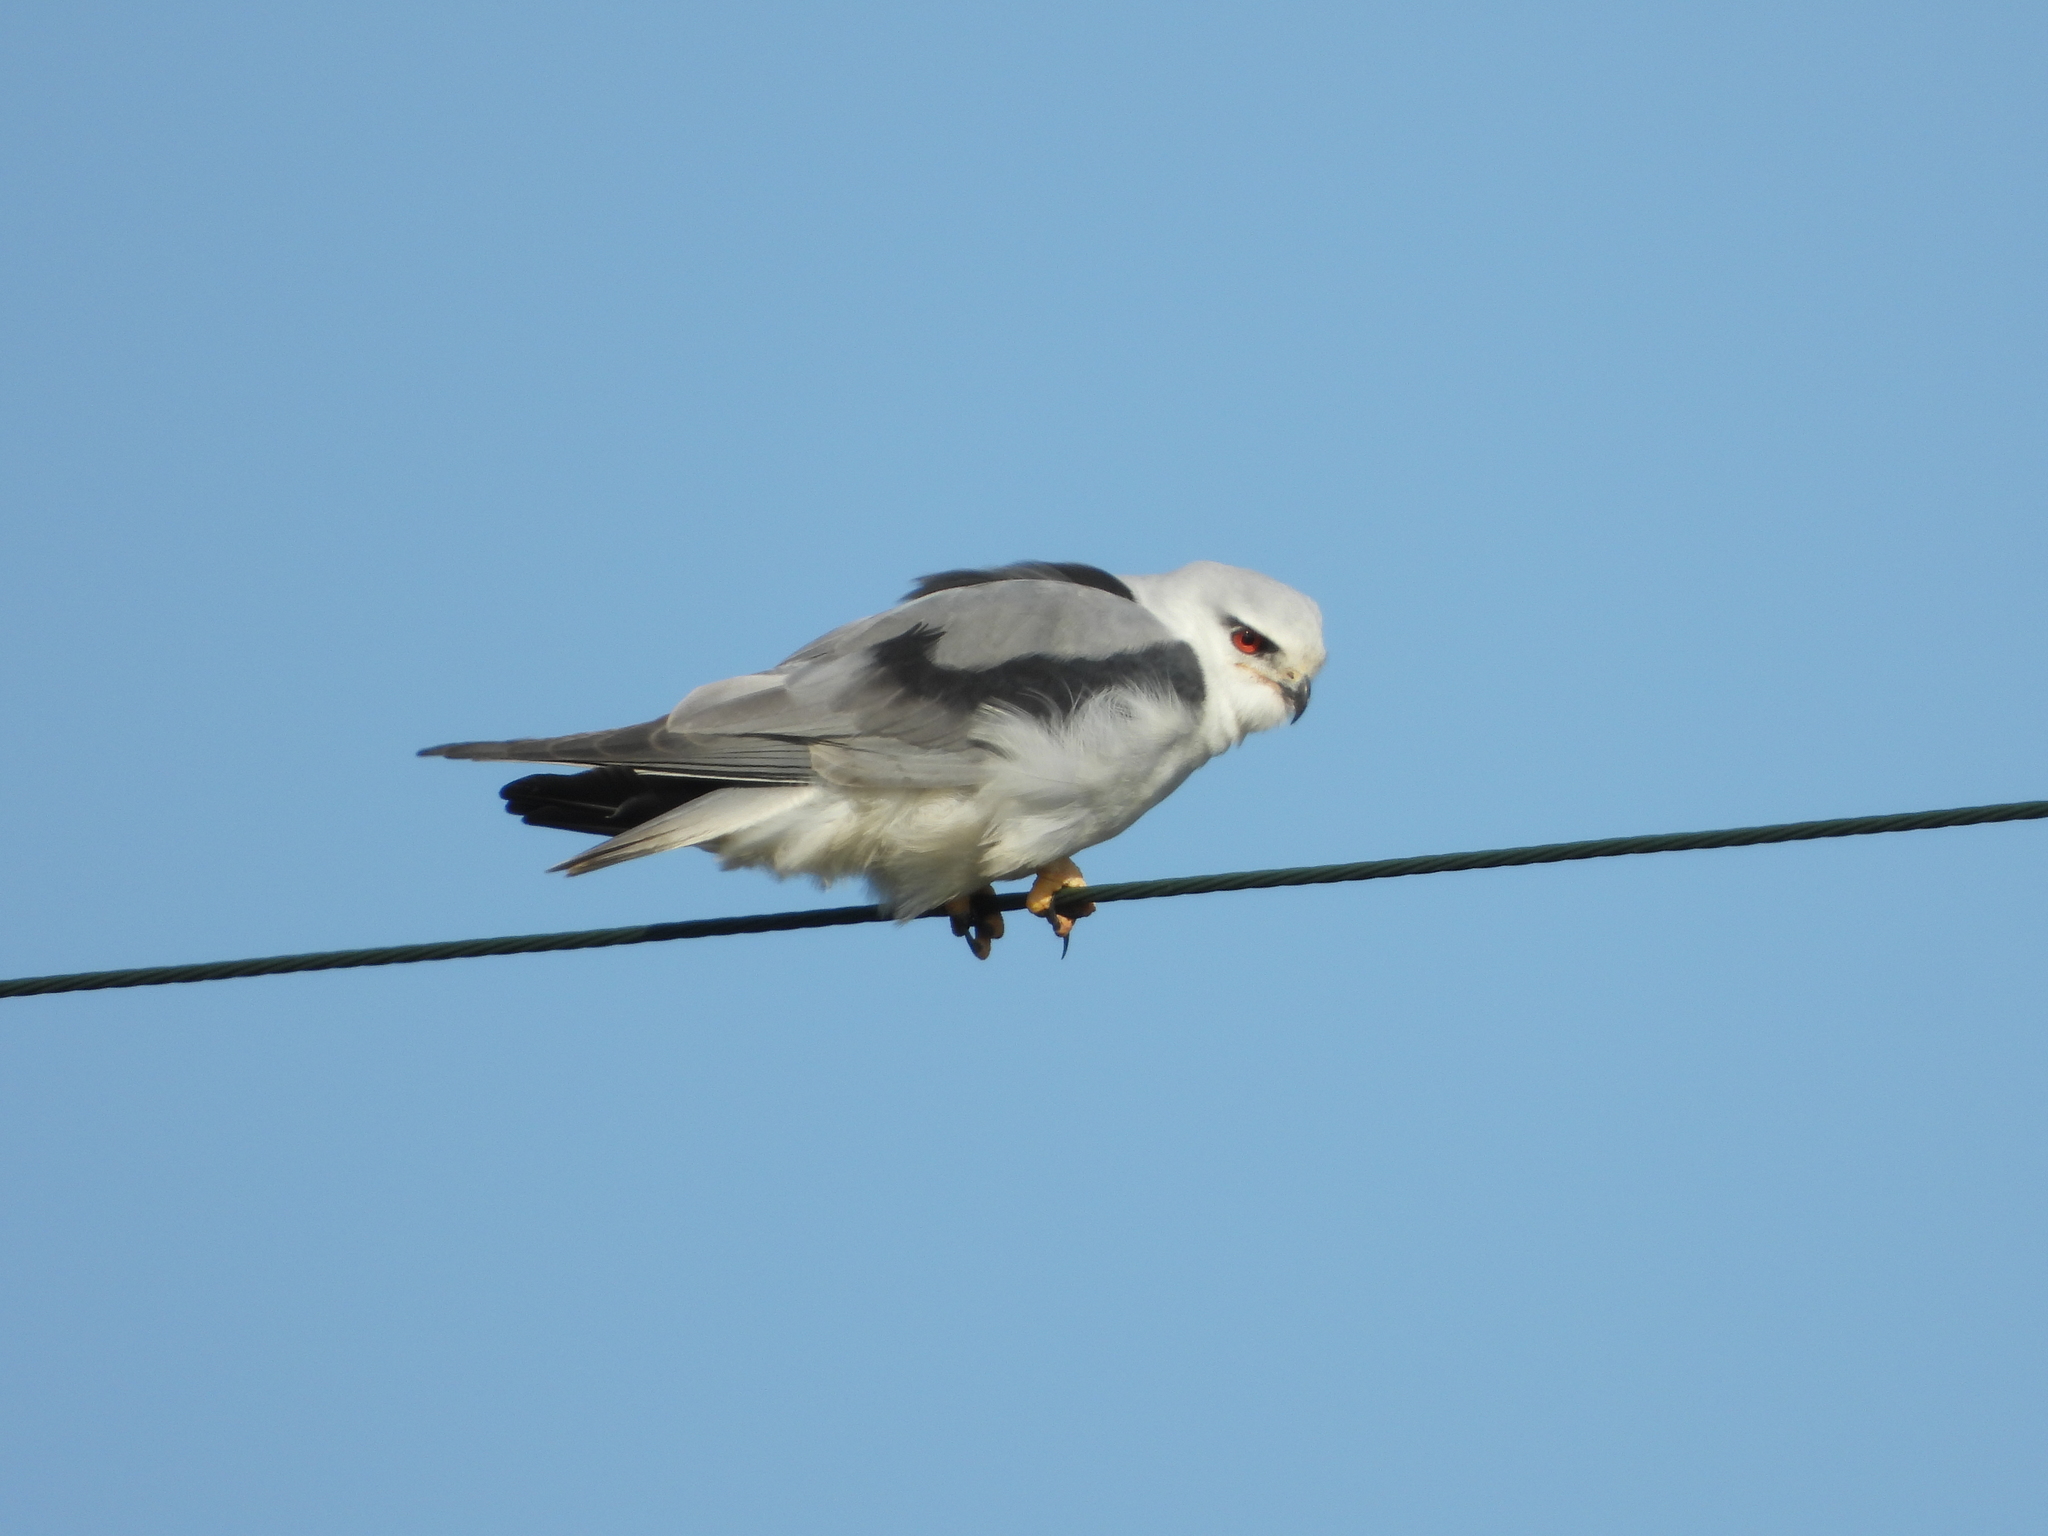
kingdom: Animalia
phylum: Chordata
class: Aves
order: Accipitriformes
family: Accipitridae
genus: Elanus
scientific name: Elanus caeruleus
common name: Black-winged kite
